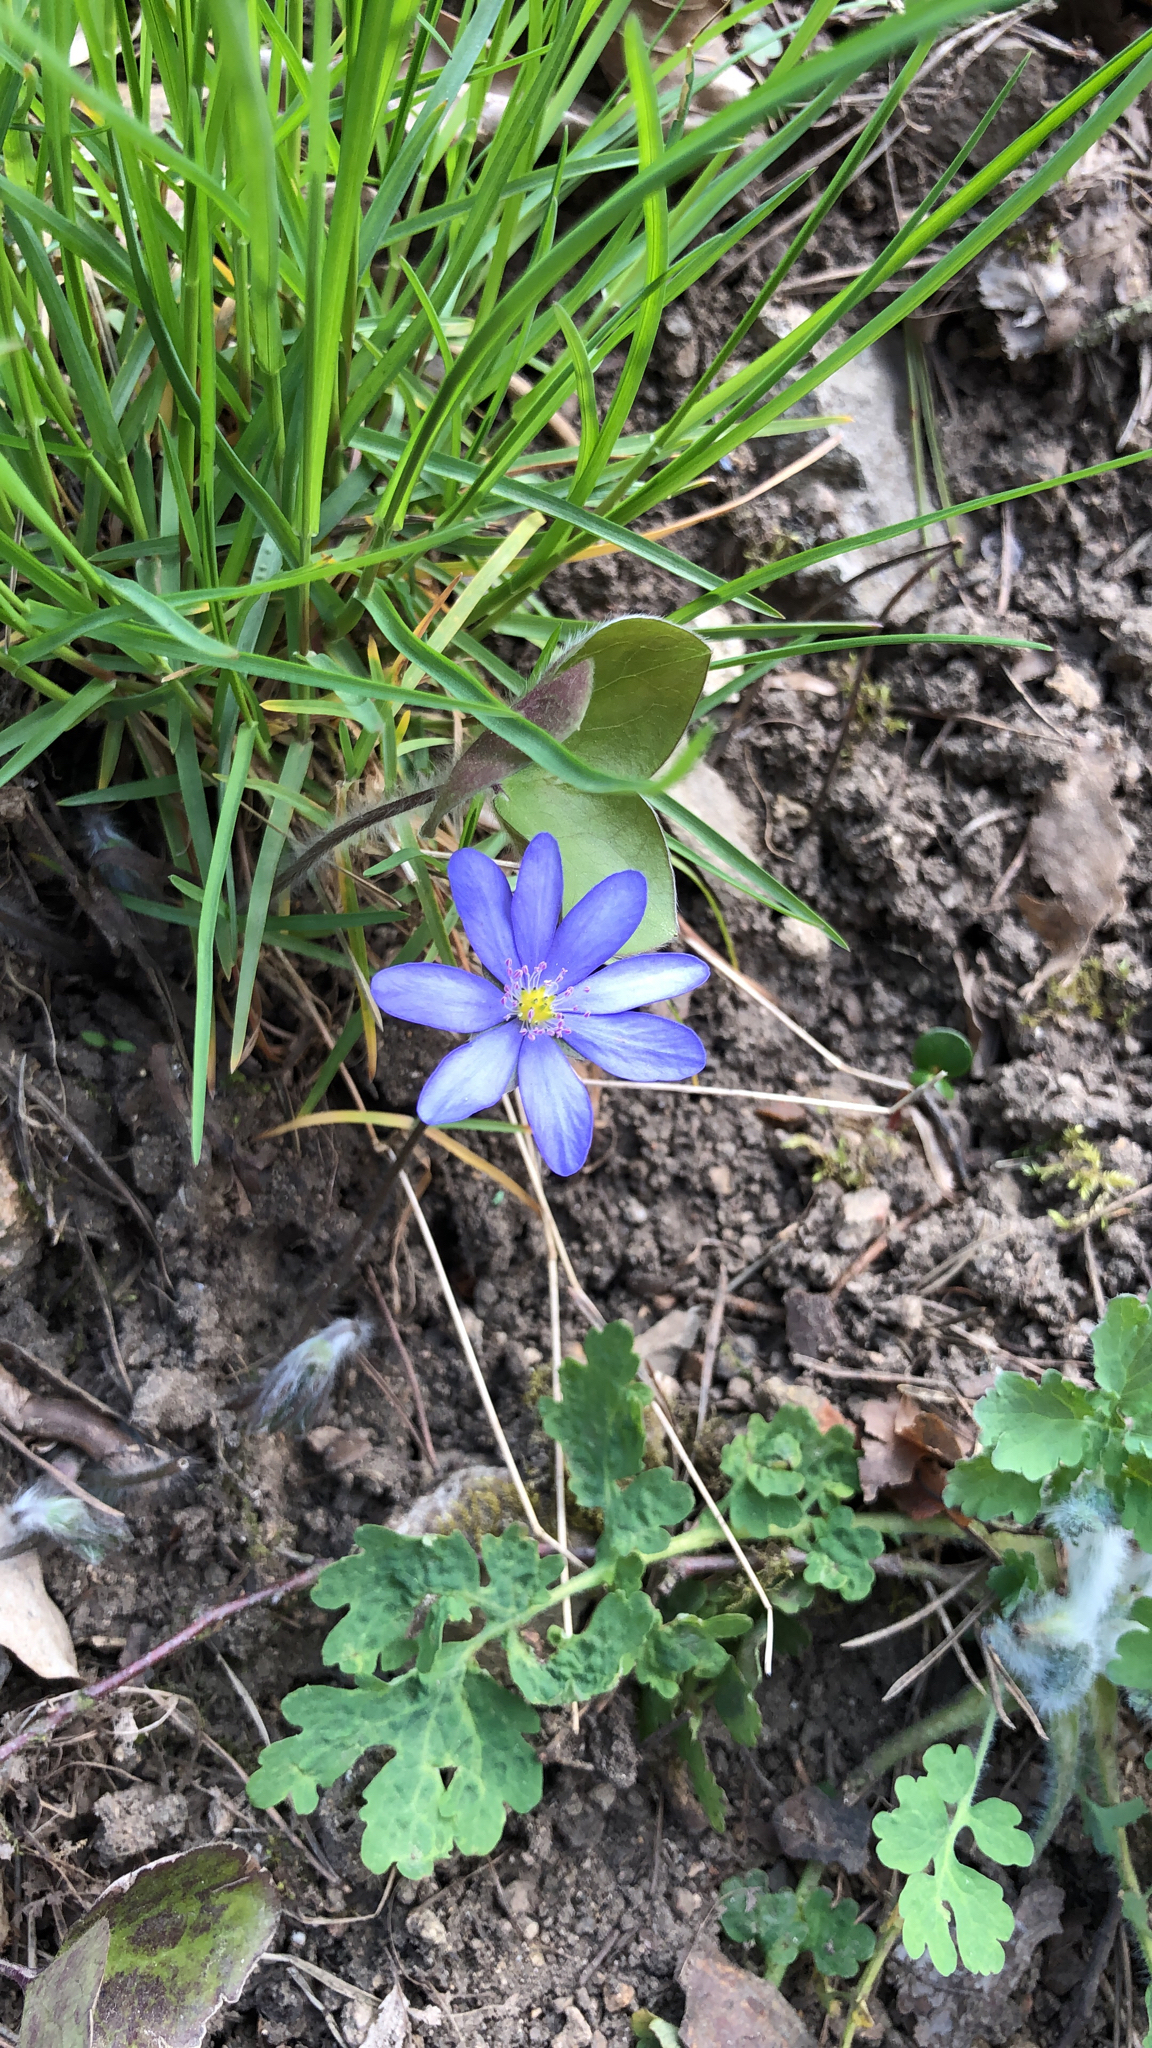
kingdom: Plantae
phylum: Tracheophyta
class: Magnoliopsida
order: Ranunculales
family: Ranunculaceae
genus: Hepatica
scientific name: Hepatica nobilis
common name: Liverleaf
